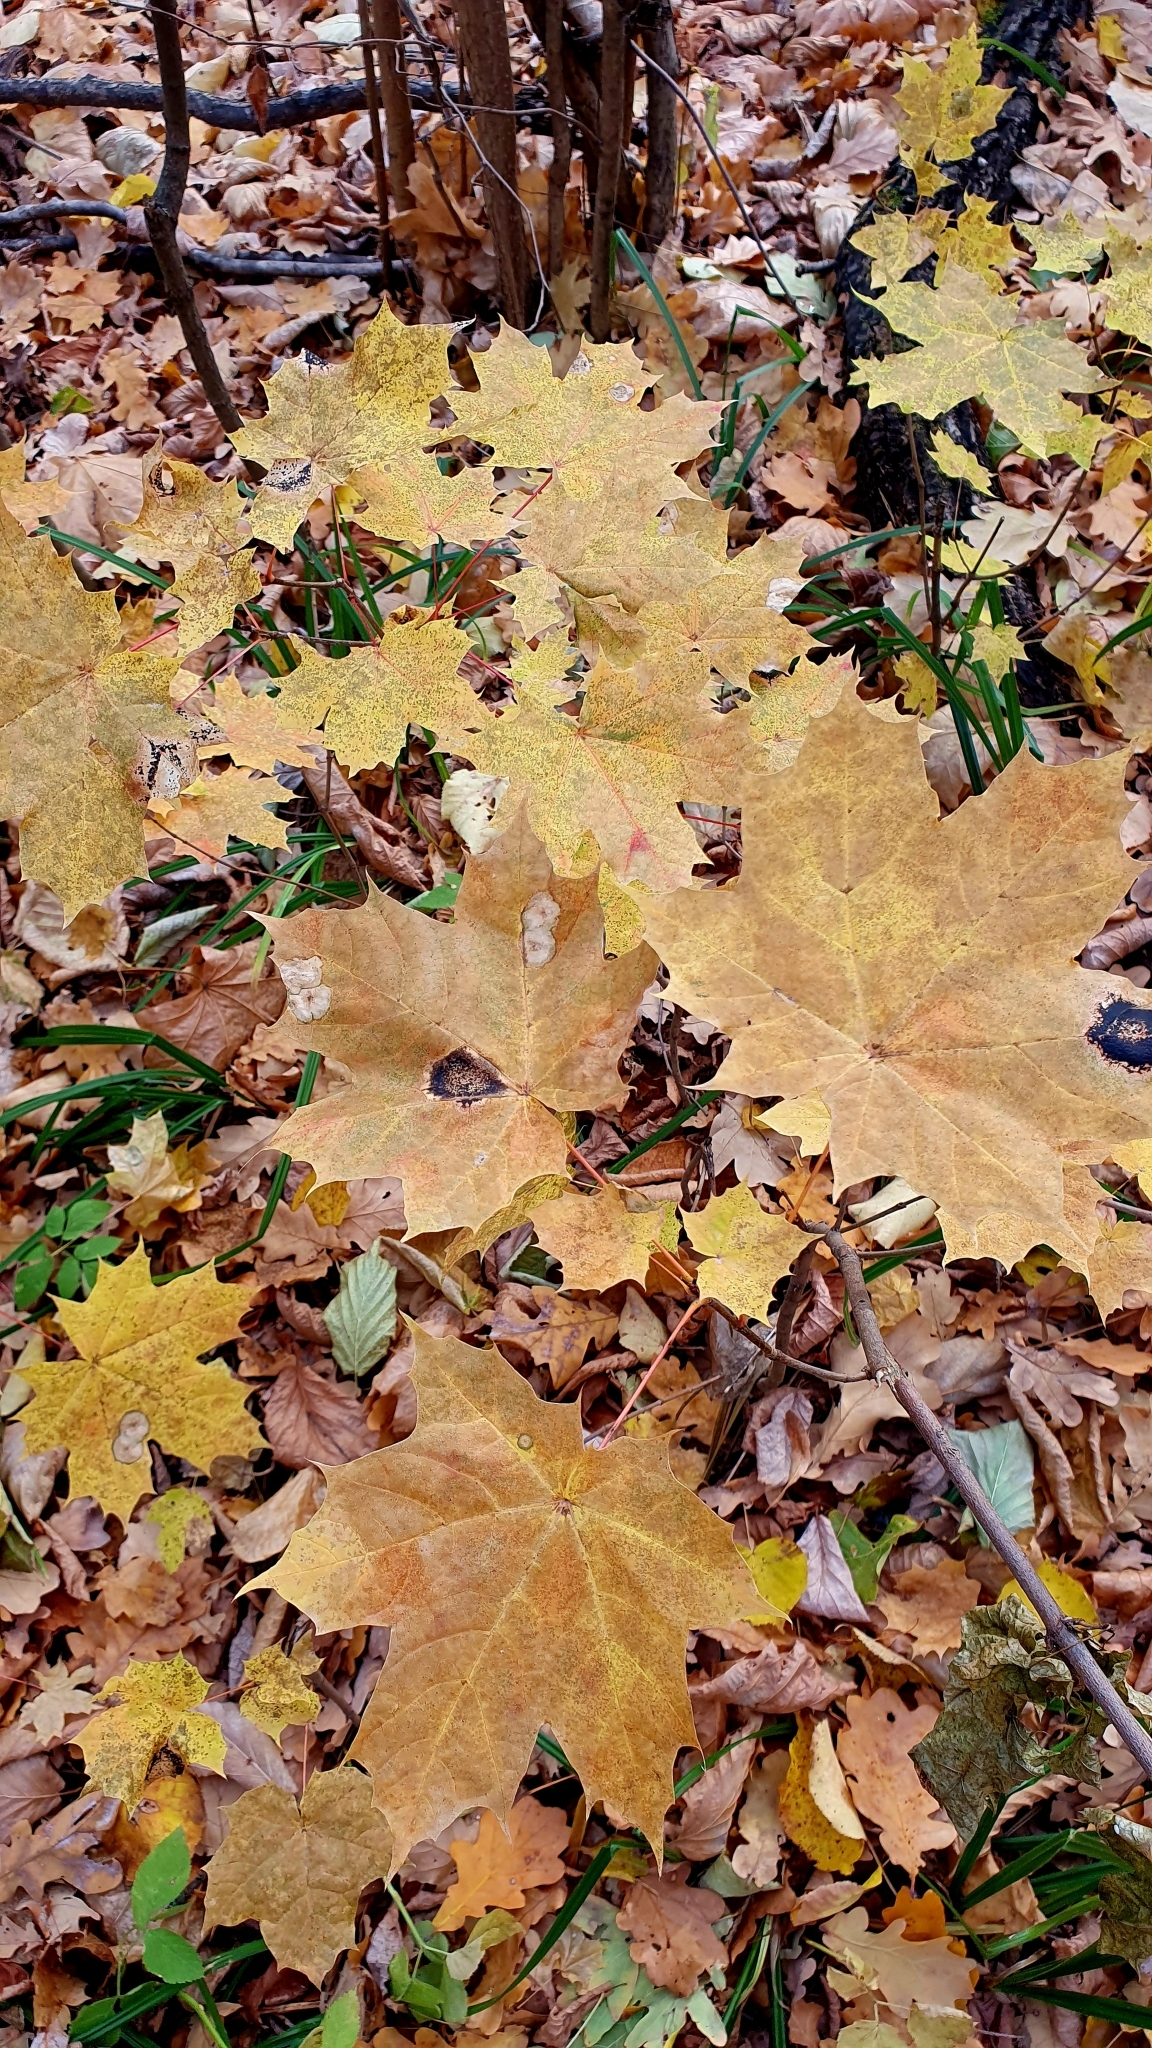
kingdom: Plantae
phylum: Tracheophyta
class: Magnoliopsida
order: Sapindales
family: Sapindaceae
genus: Acer
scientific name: Acer platanoides
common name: Norway maple
